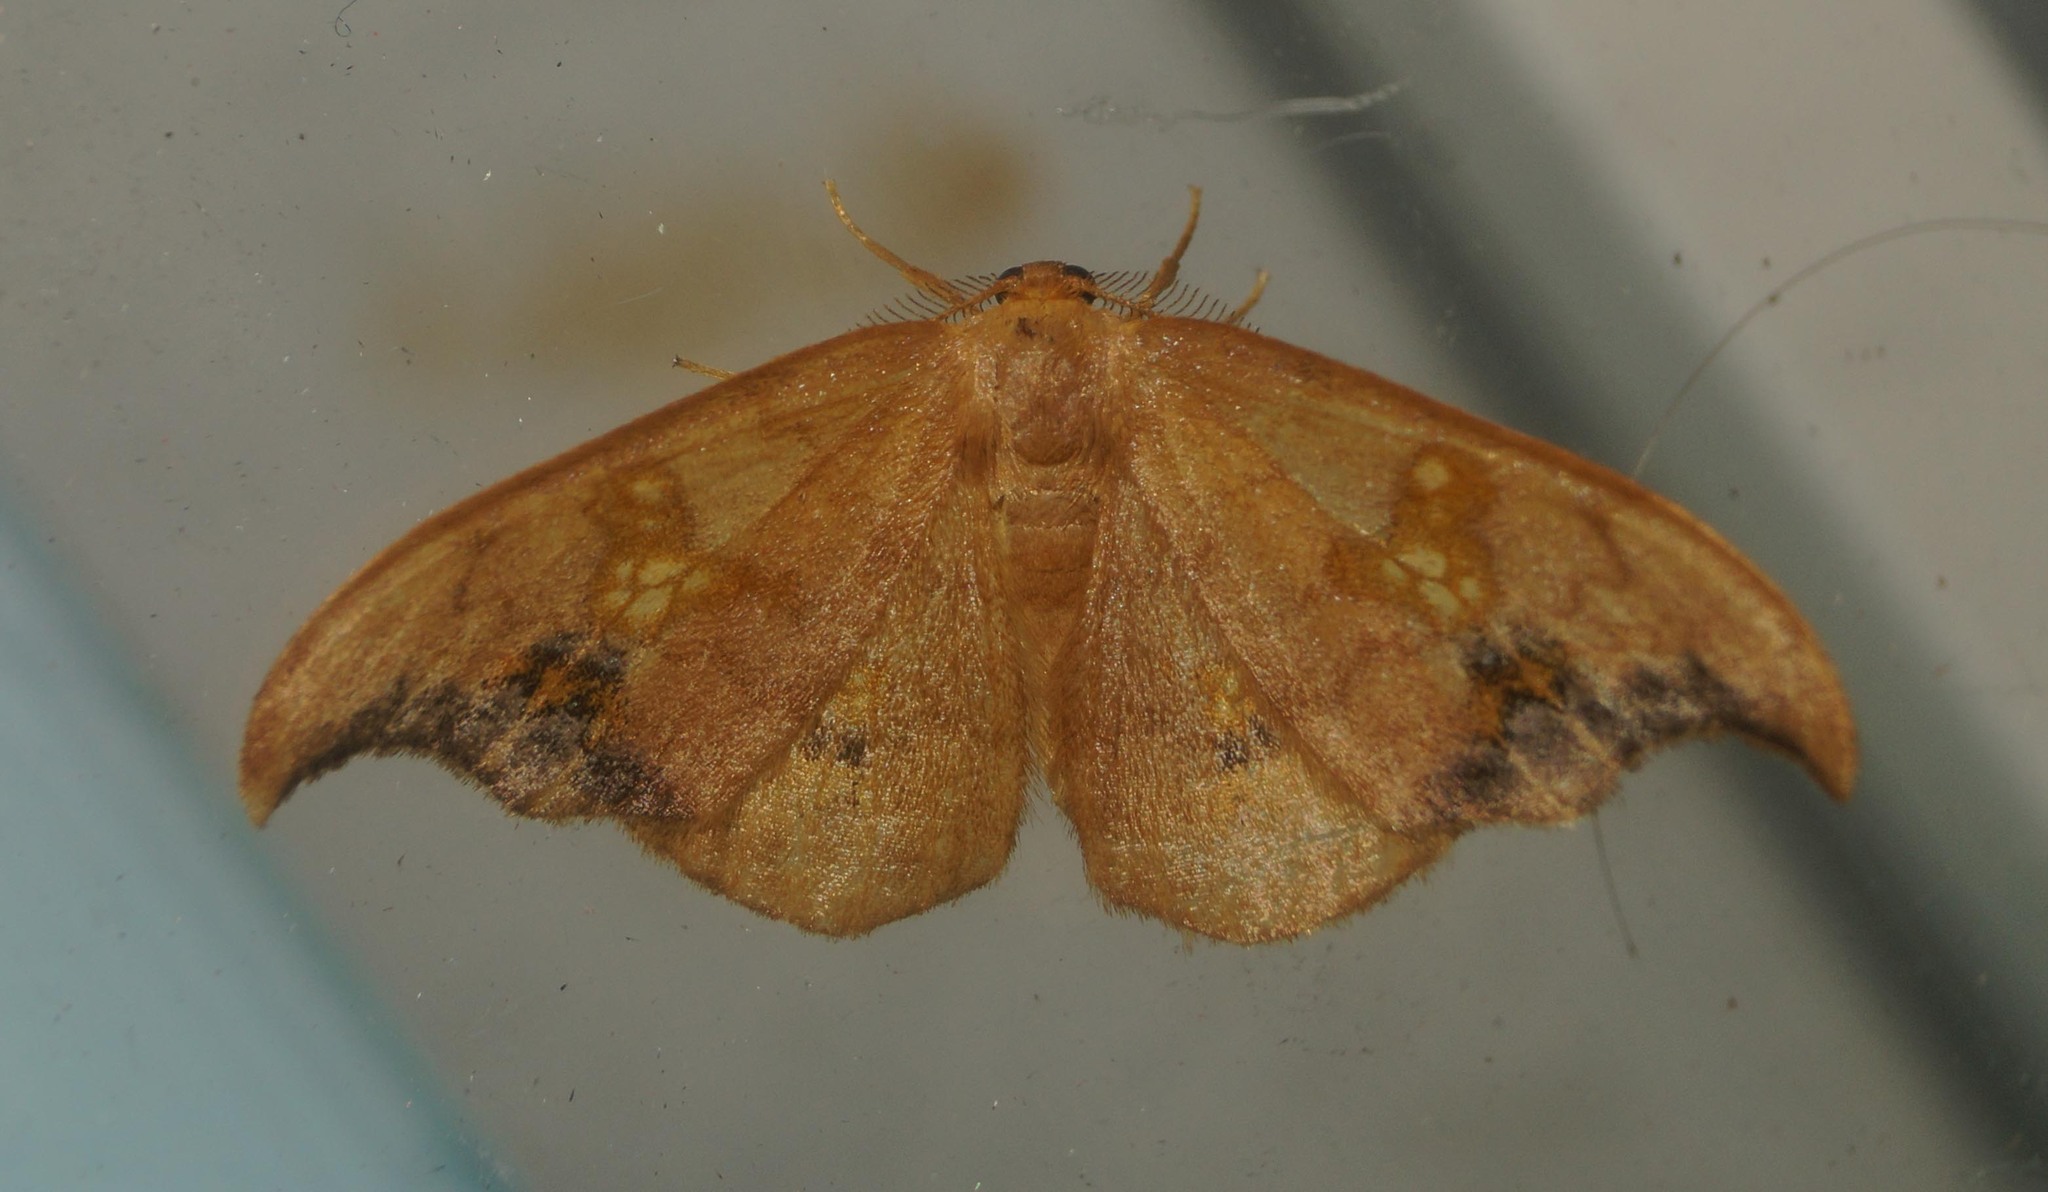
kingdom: Animalia
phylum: Arthropoda
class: Insecta
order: Lepidoptera
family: Drepanidae
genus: Sabra
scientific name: Sabra harpagula
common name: Scarce hook-tip
